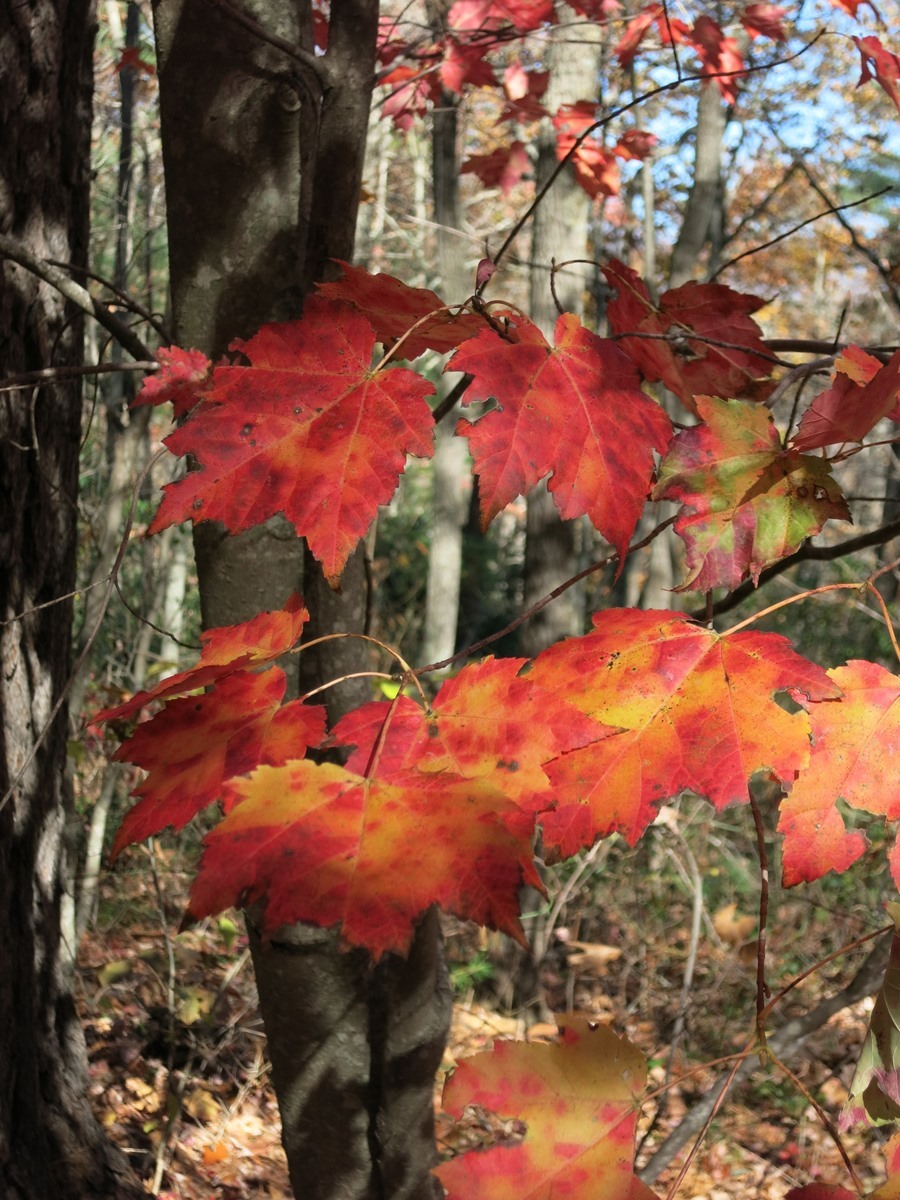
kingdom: Plantae
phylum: Tracheophyta
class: Magnoliopsida
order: Sapindales
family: Sapindaceae
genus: Acer
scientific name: Acer rubrum
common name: Red maple
